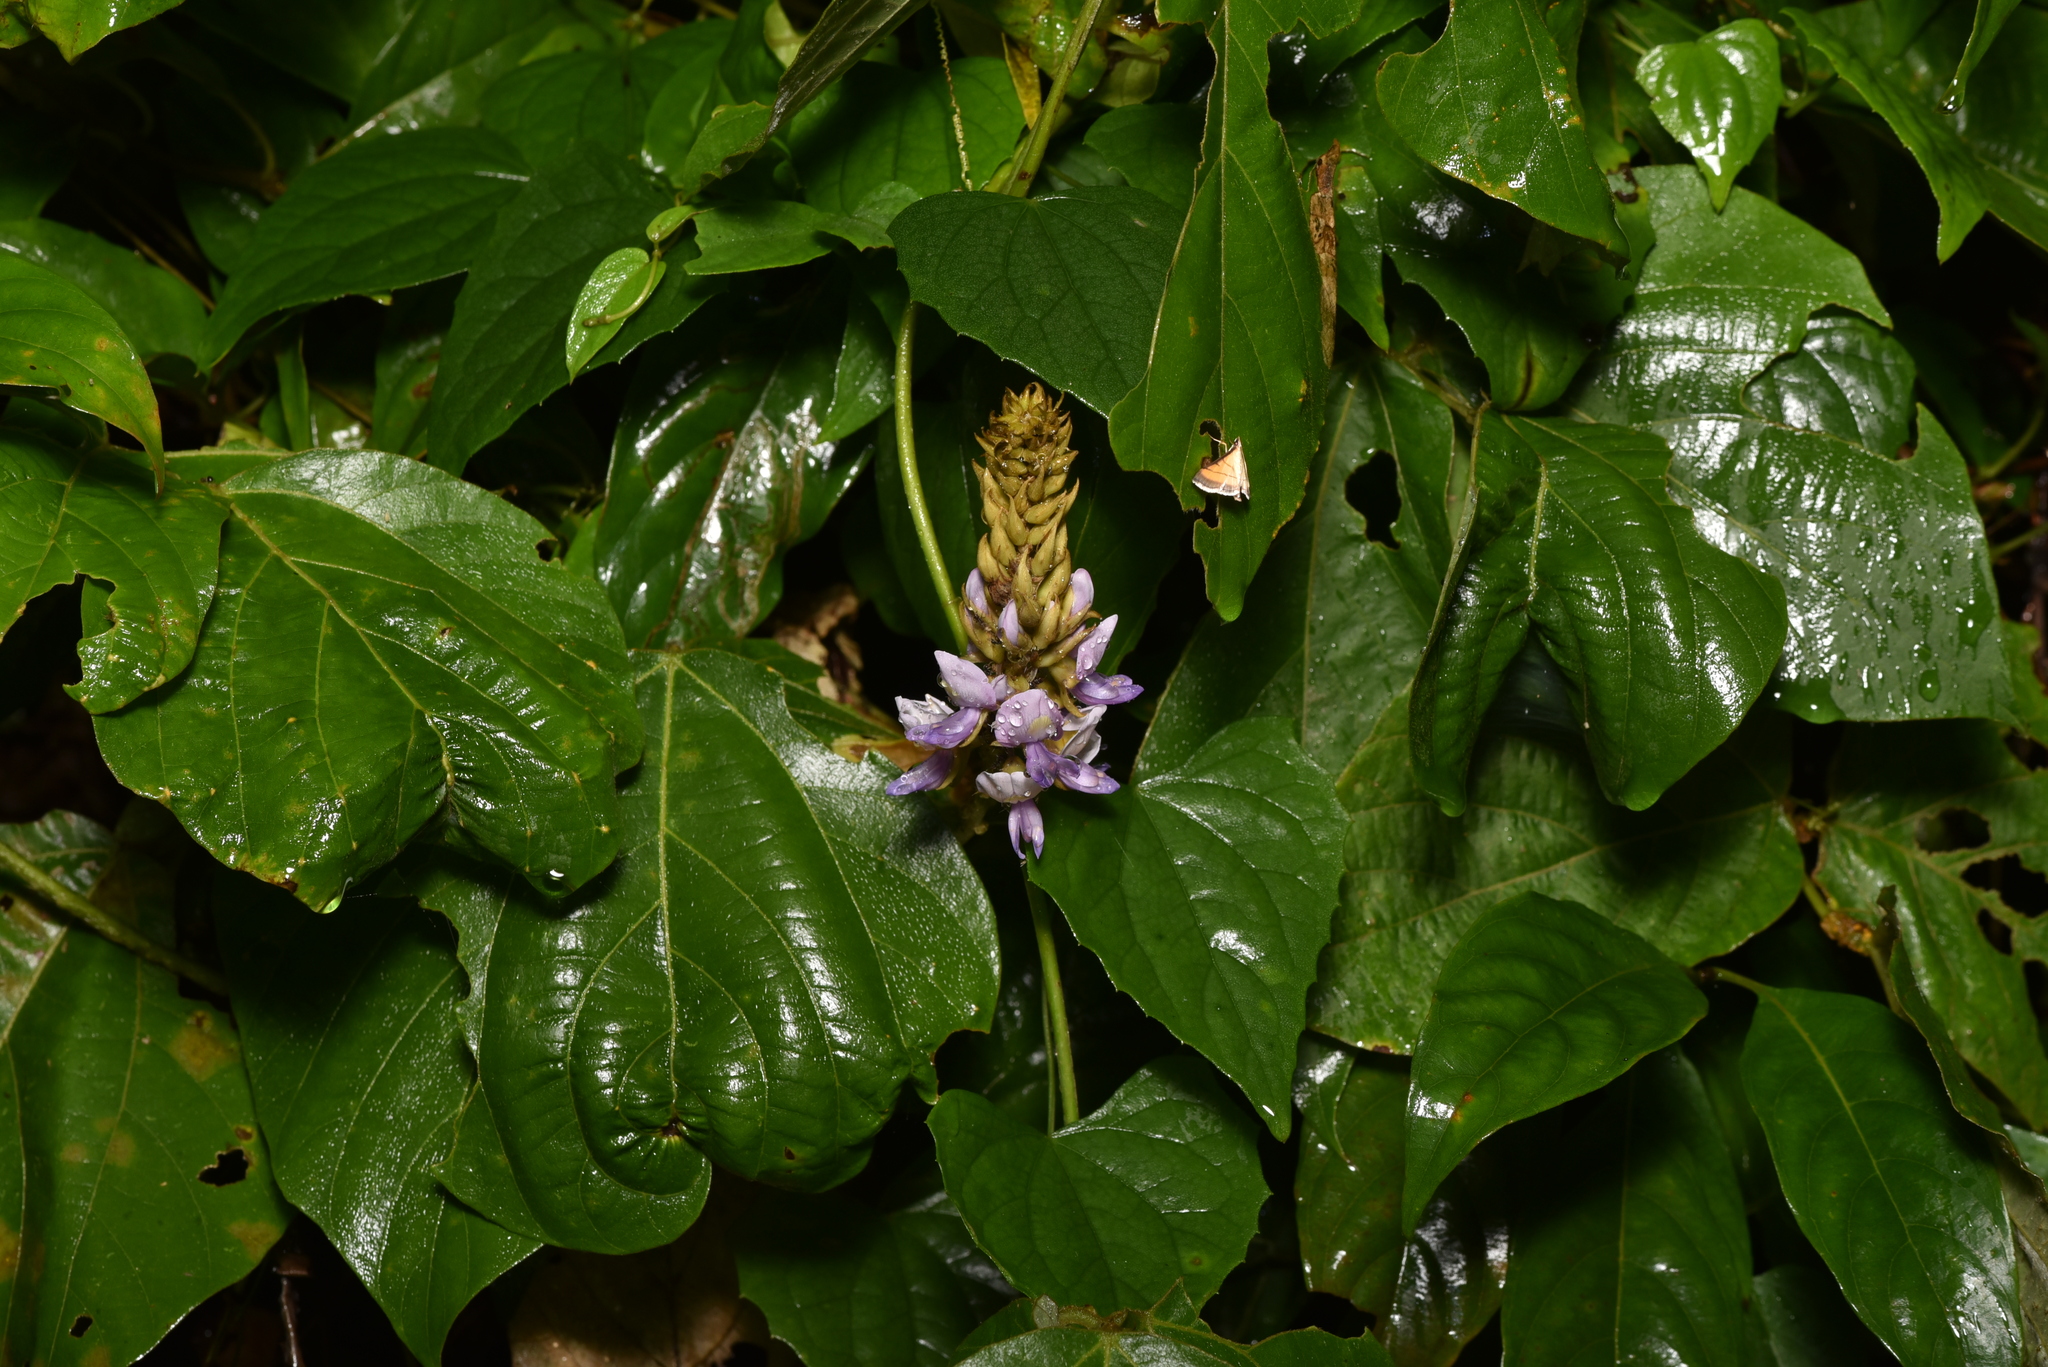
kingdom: Plantae
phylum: Tracheophyta
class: Magnoliopsida
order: Fabales
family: Fabaceae
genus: Pueraria
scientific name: Pueraria montana
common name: Kudzu
